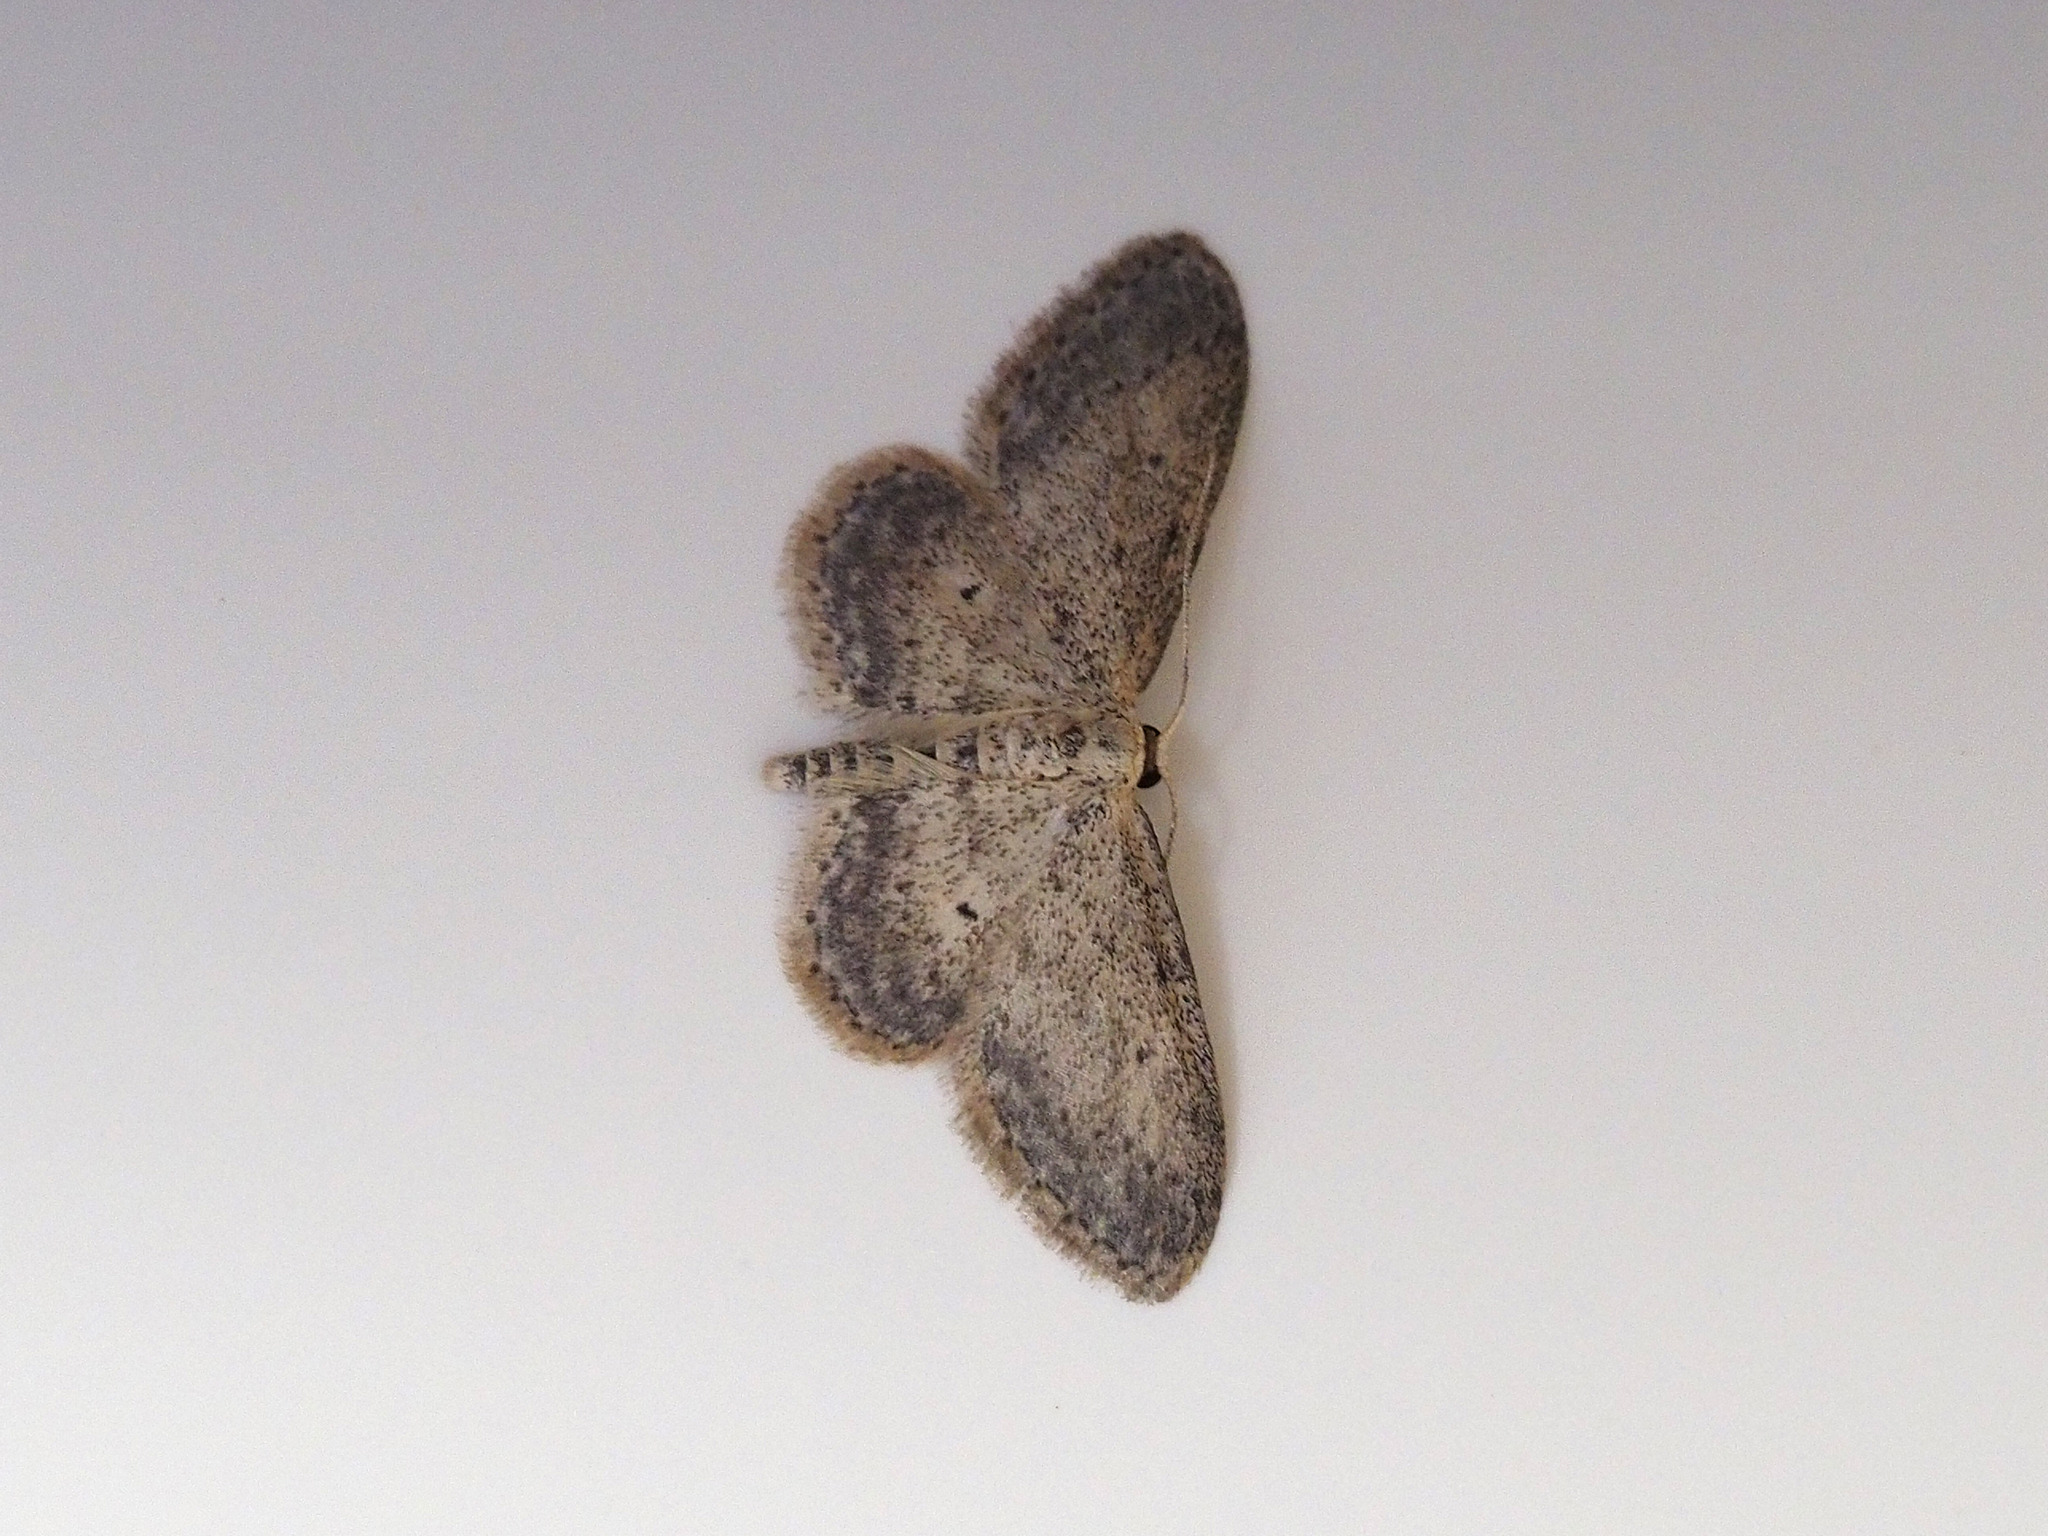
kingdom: Animalia
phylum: Arthropoda
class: Insecta
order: Lepidoptera
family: Geometridae
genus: Idaea
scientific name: Idaea seriata
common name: Small dusty wave
